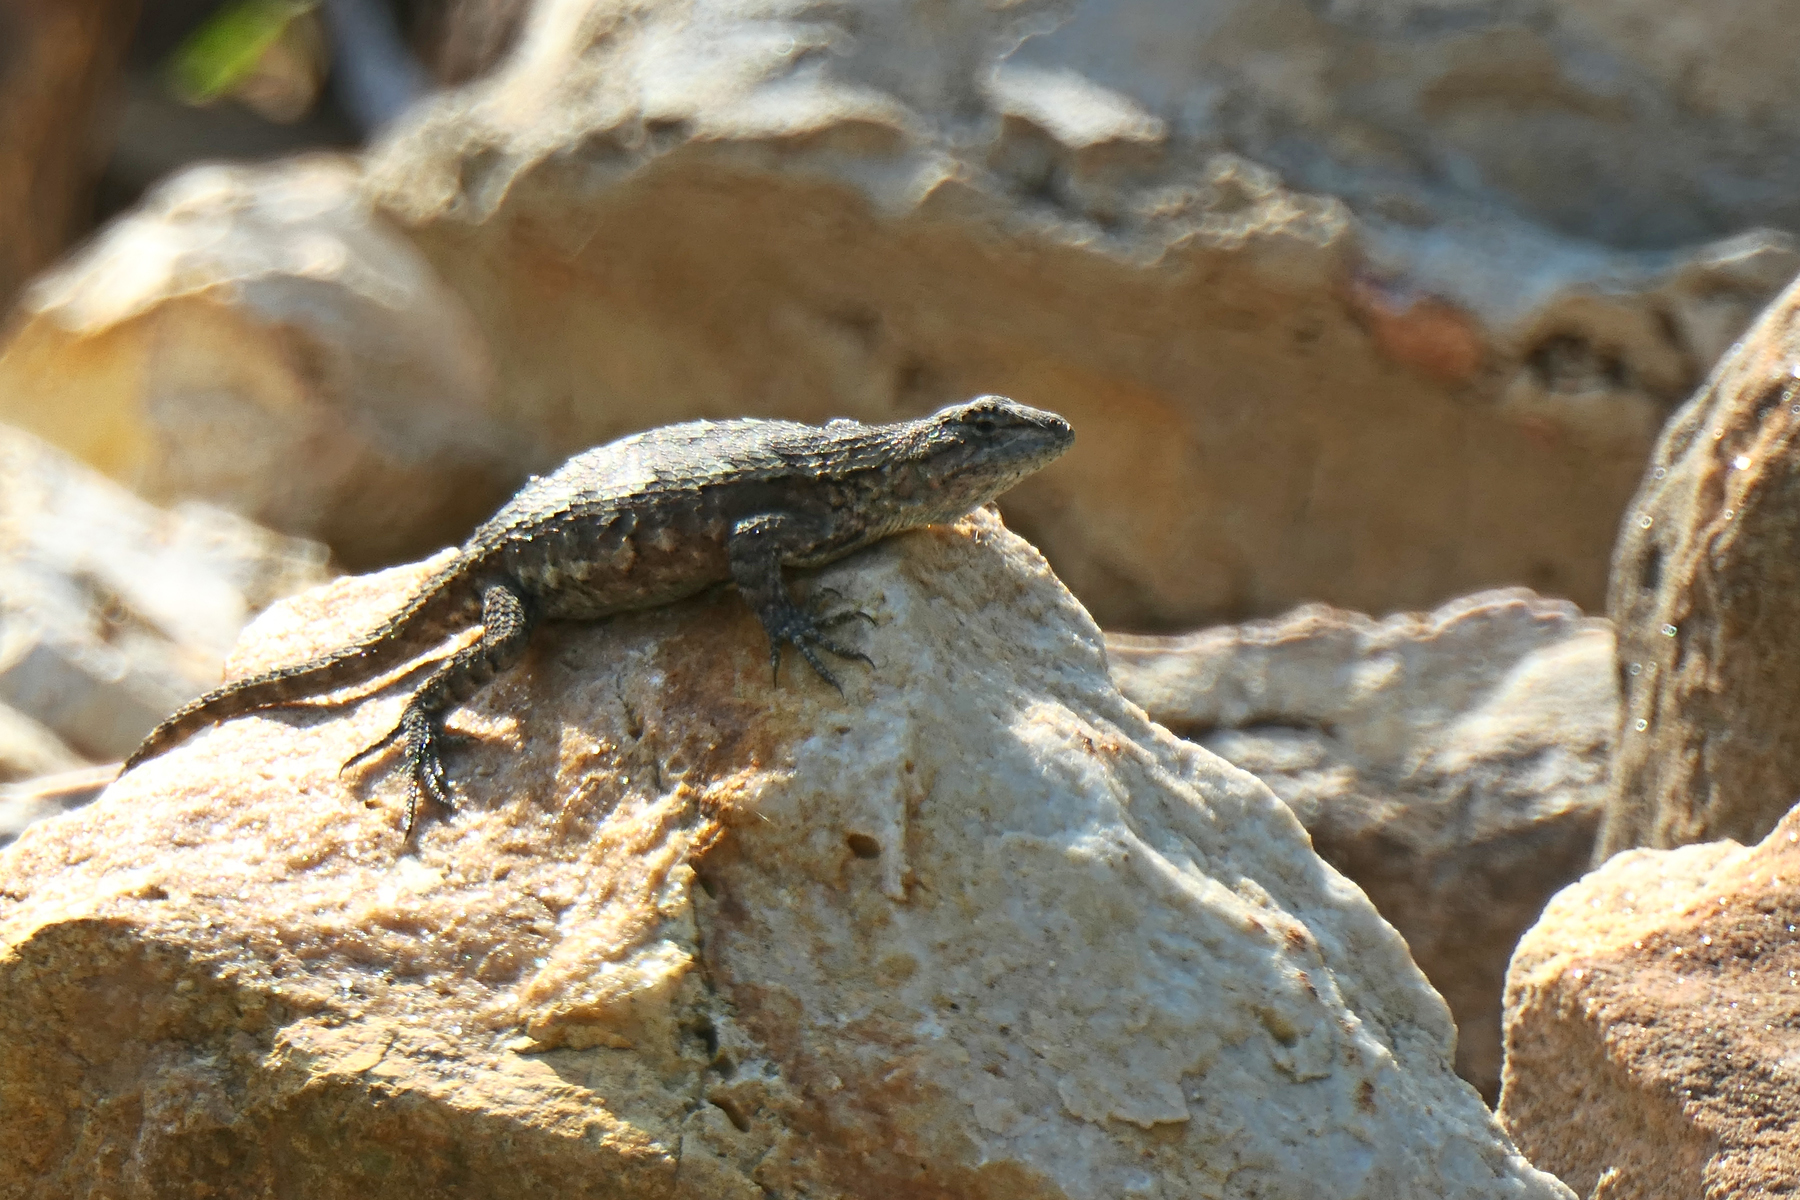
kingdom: Animalia
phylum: Chordata
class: Squamata
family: Phrynosomatidae
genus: Sceloporus
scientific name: Sceloporus consobrinus
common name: Southern prairie lizard
